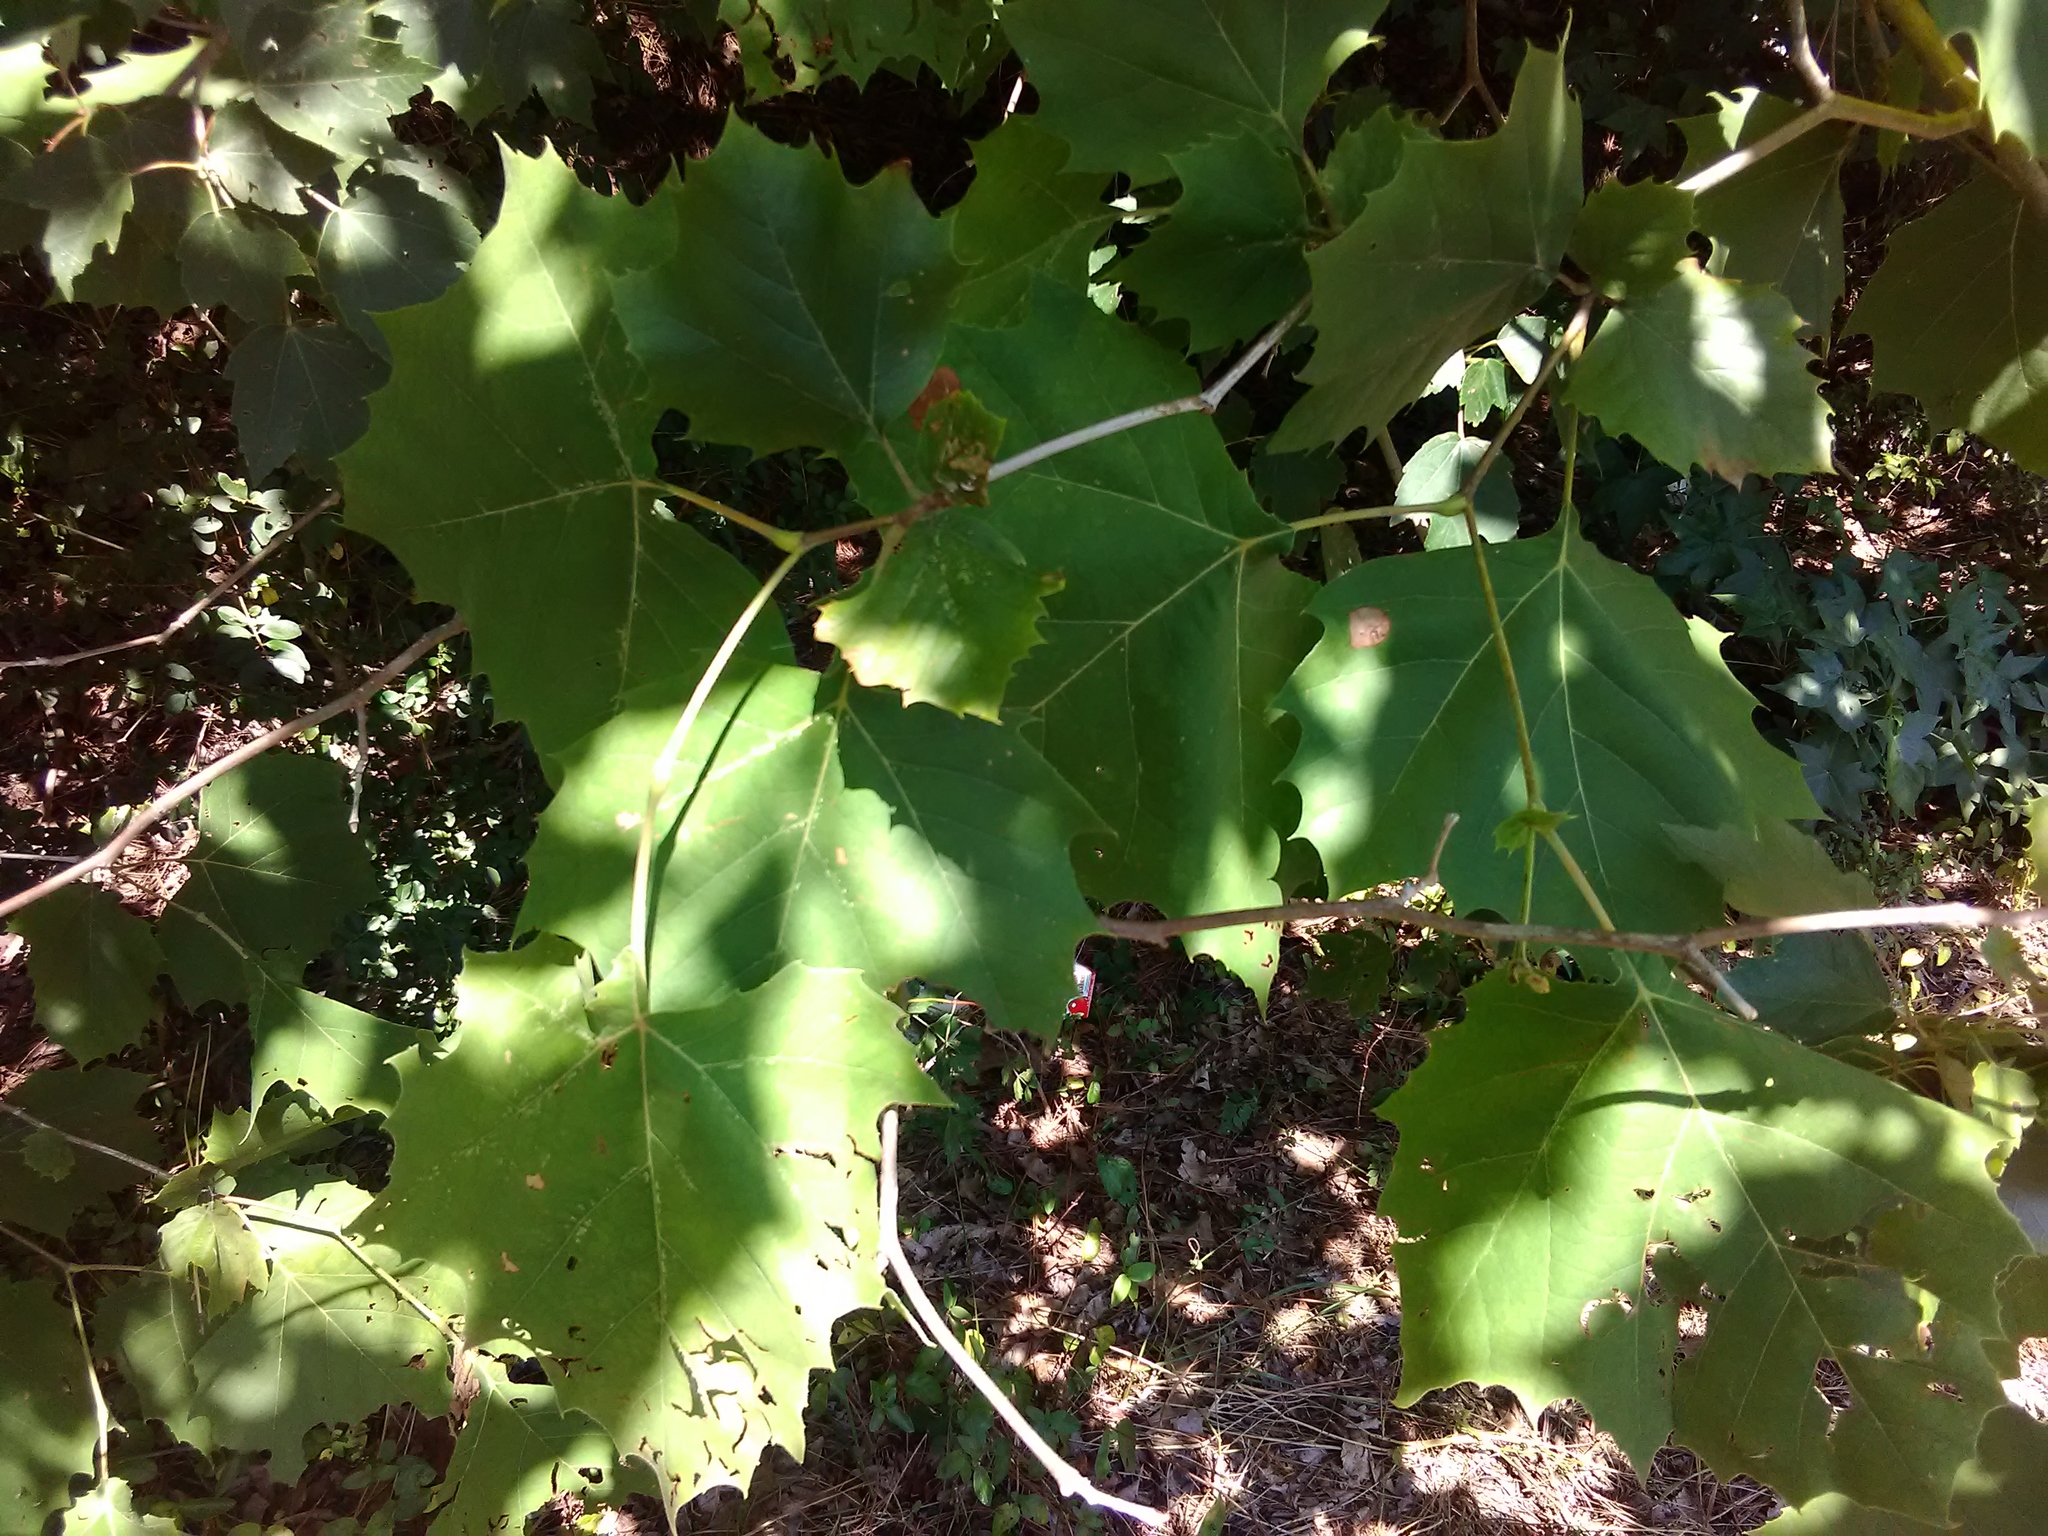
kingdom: Plantae
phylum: Tracheophyta
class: Magnoliopsida
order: Proteales
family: Platanaceae
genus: Platanus
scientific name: Platanus occidentalis
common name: American sycamore
